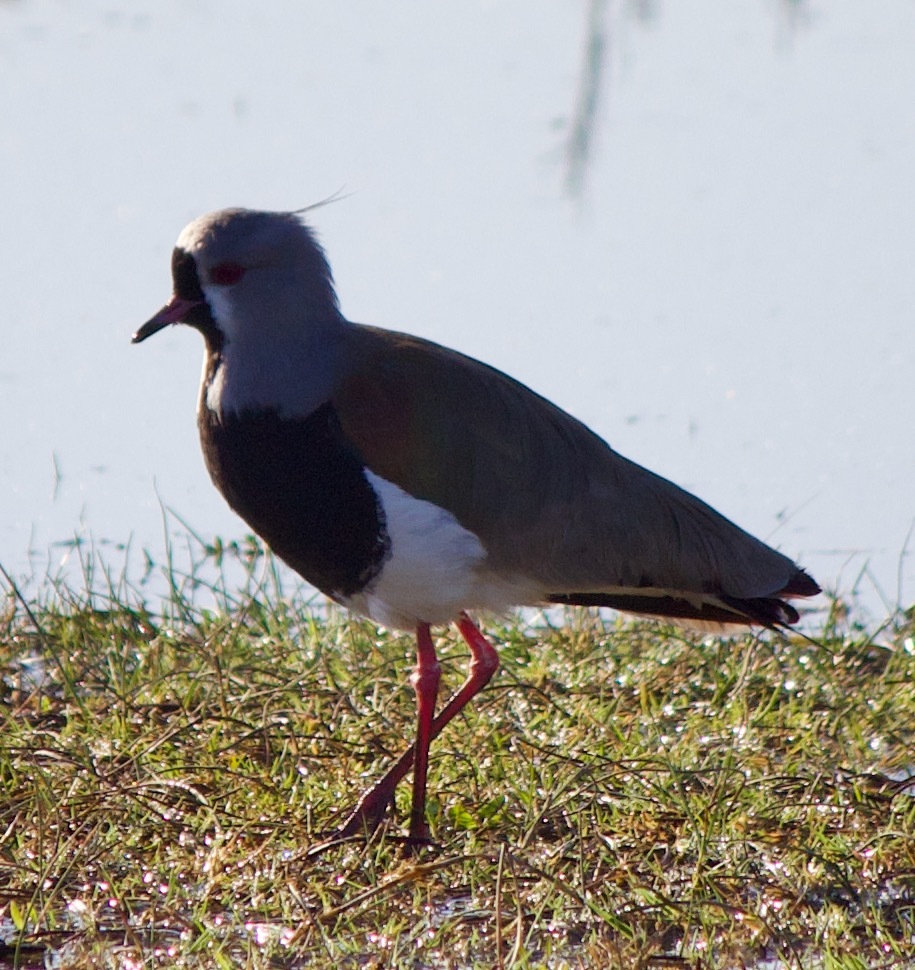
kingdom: Animalia
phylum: Chordata
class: Aves
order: Charadriiformes
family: Charadriidae
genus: Vanellus
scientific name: Vanellus chilensis
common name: Southern lapwing
